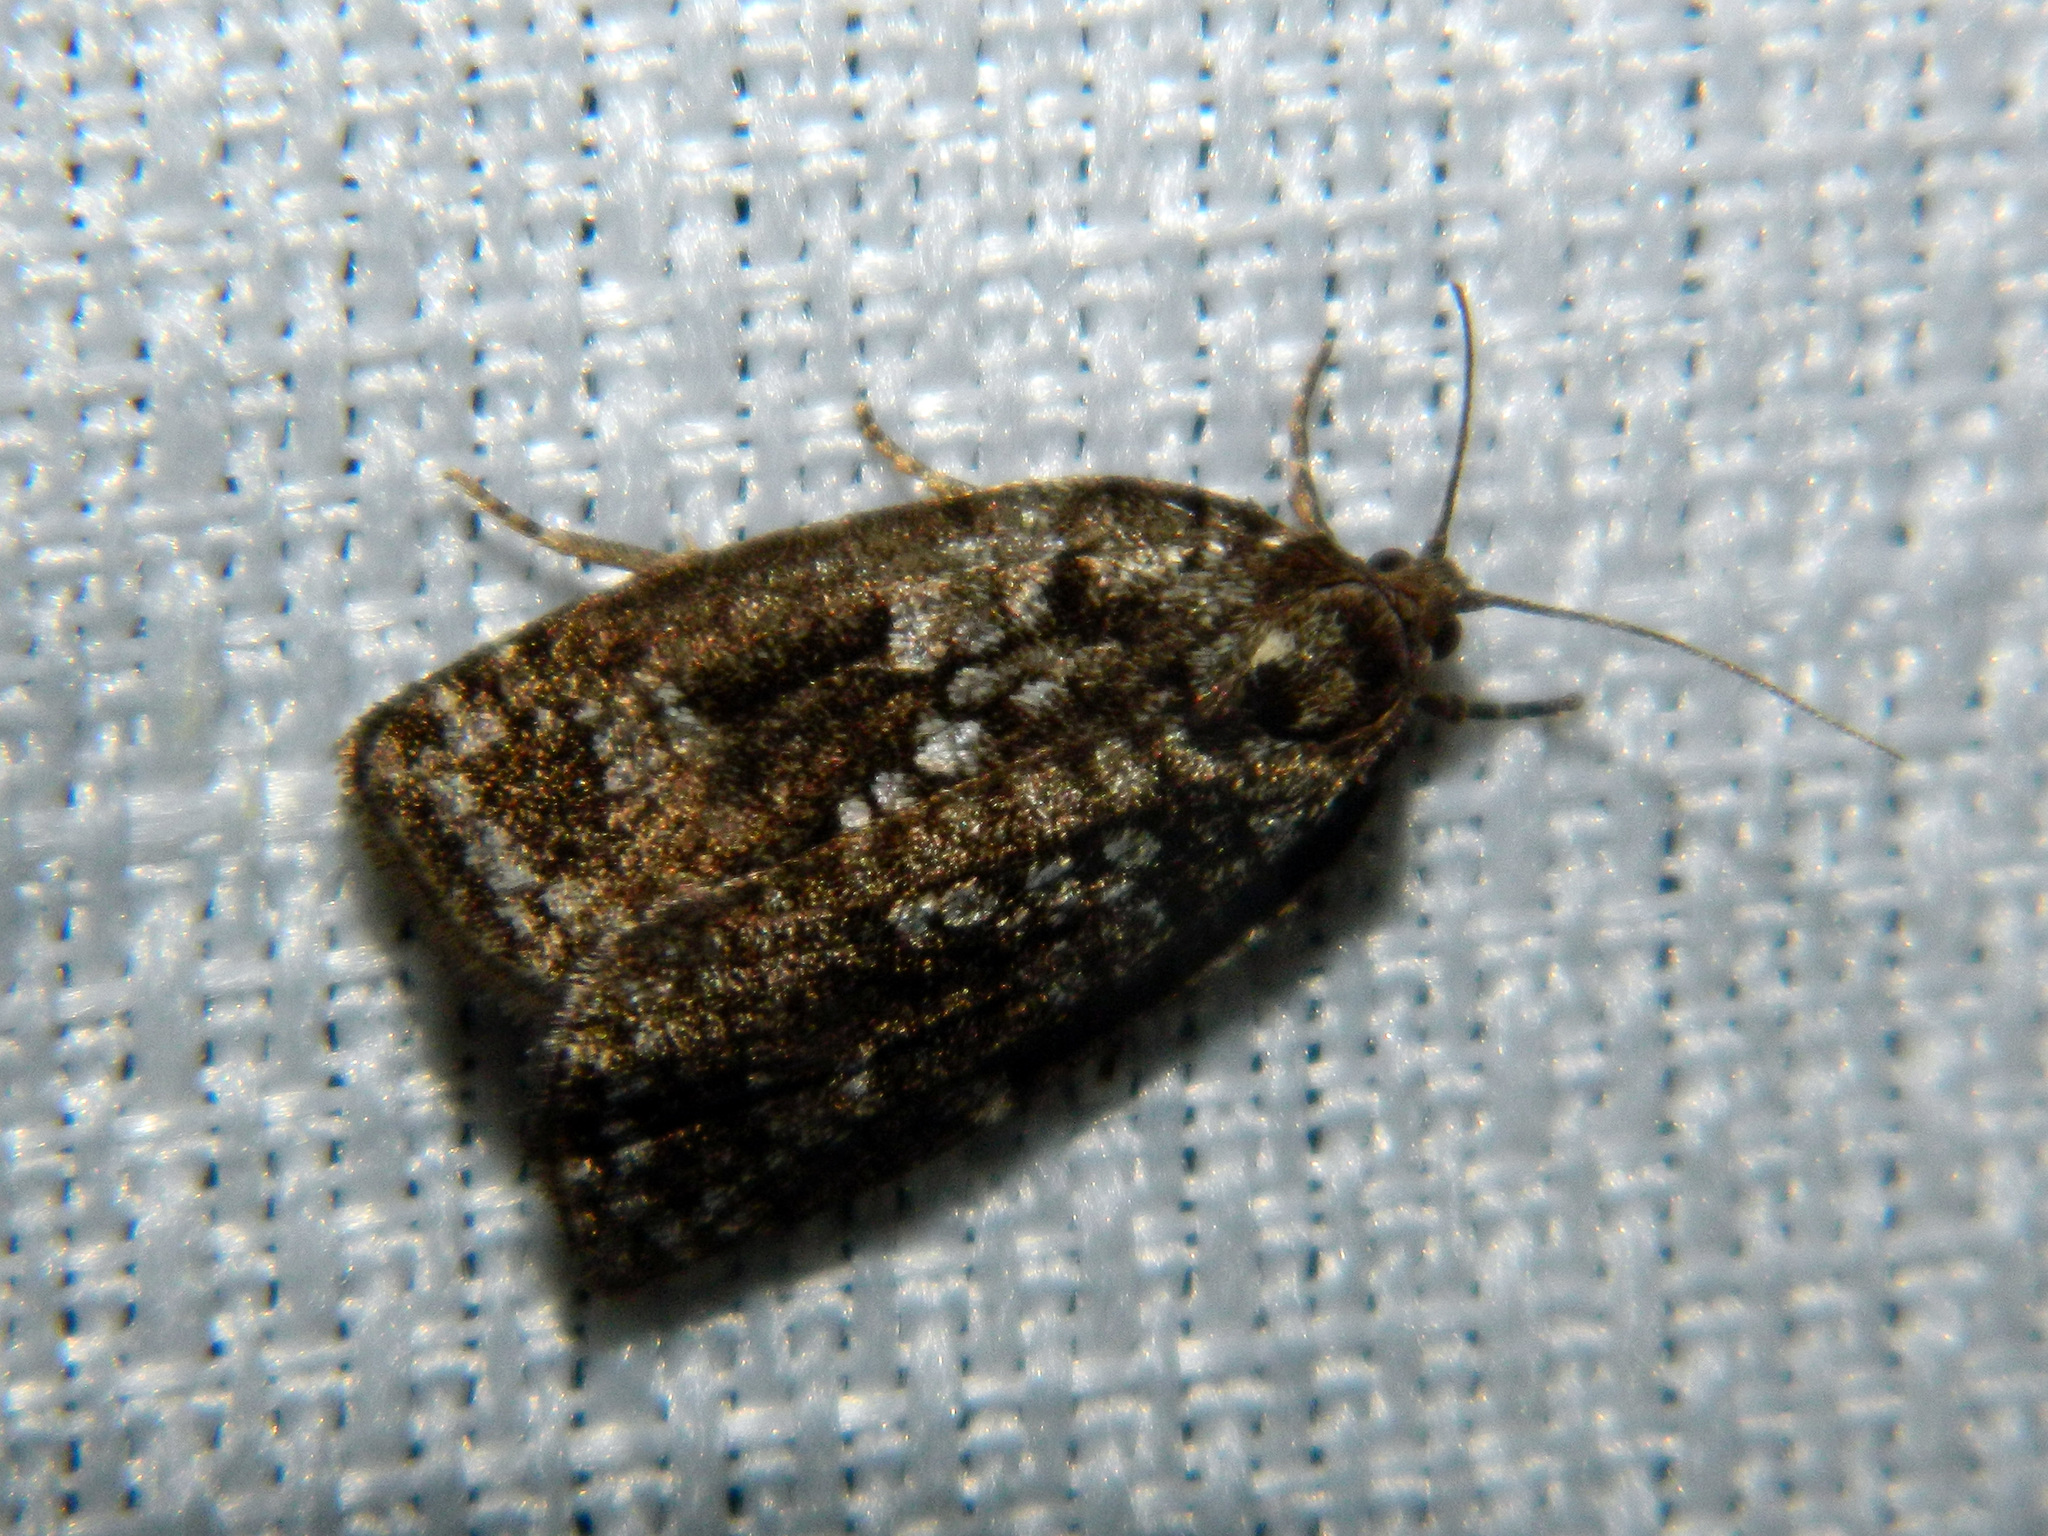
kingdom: Animalia
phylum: Arthropoda
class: Insecta
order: Lepidoptera
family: Tortricidae
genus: Choristoneura
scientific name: Choristoneura fumiferana
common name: Spruce budworm
